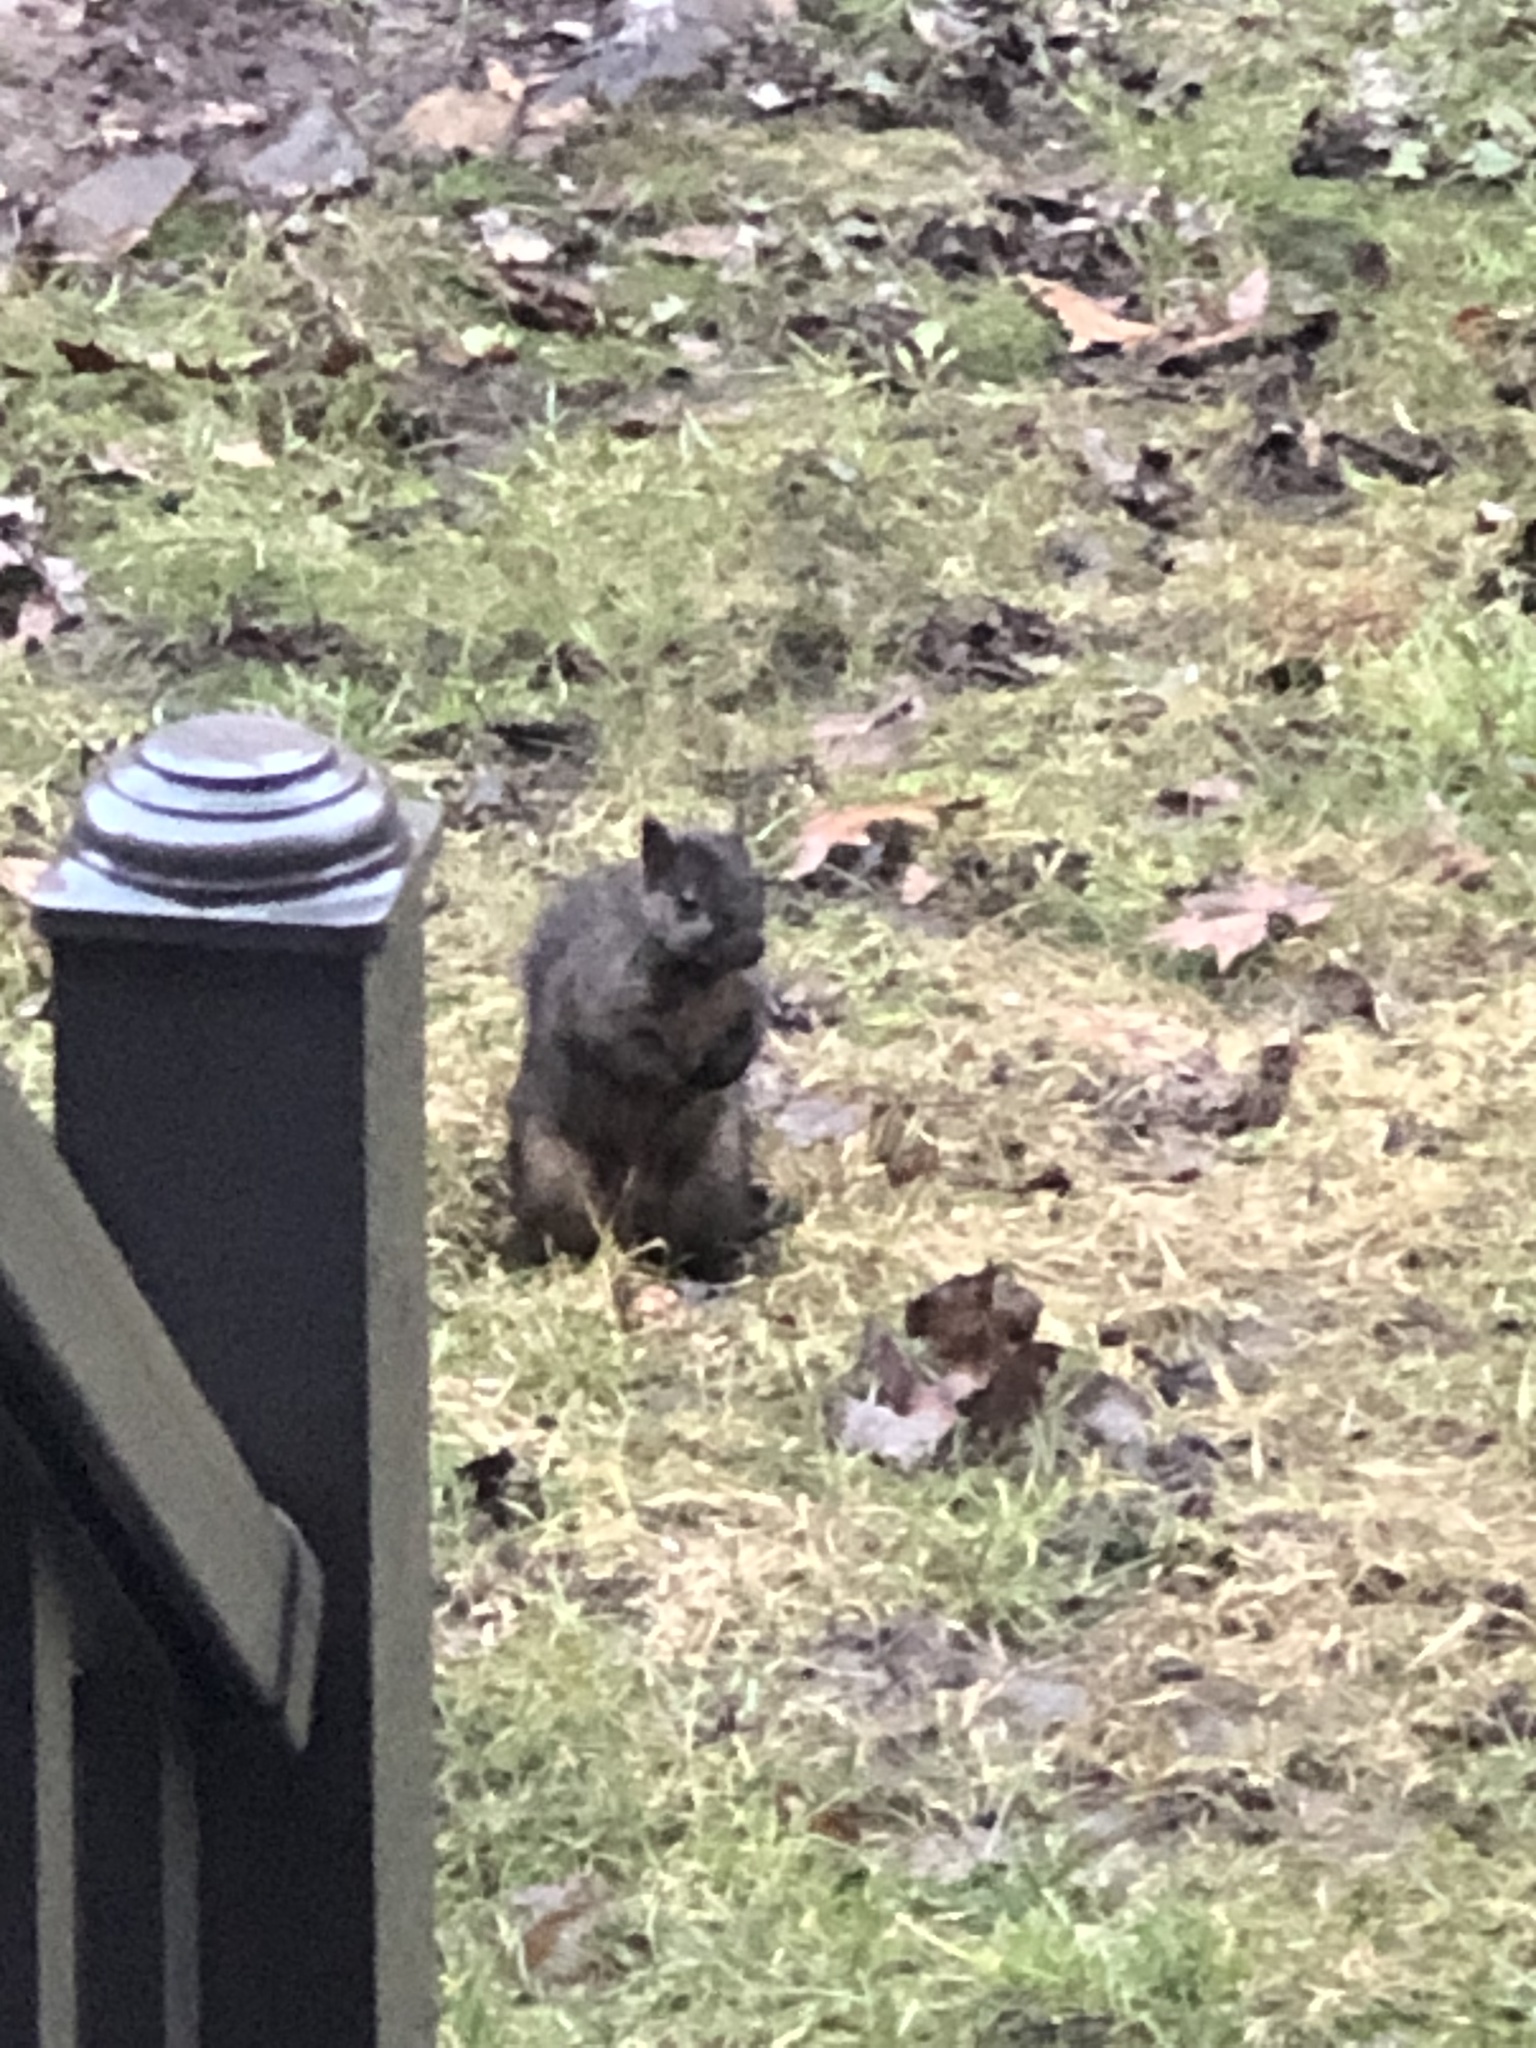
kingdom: Animalia
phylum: Chordata
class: Mammalia
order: Rodentia
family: Sciuridae
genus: Sciurus
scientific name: Sciurus carolinensis
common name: Eastern gray squirrel
